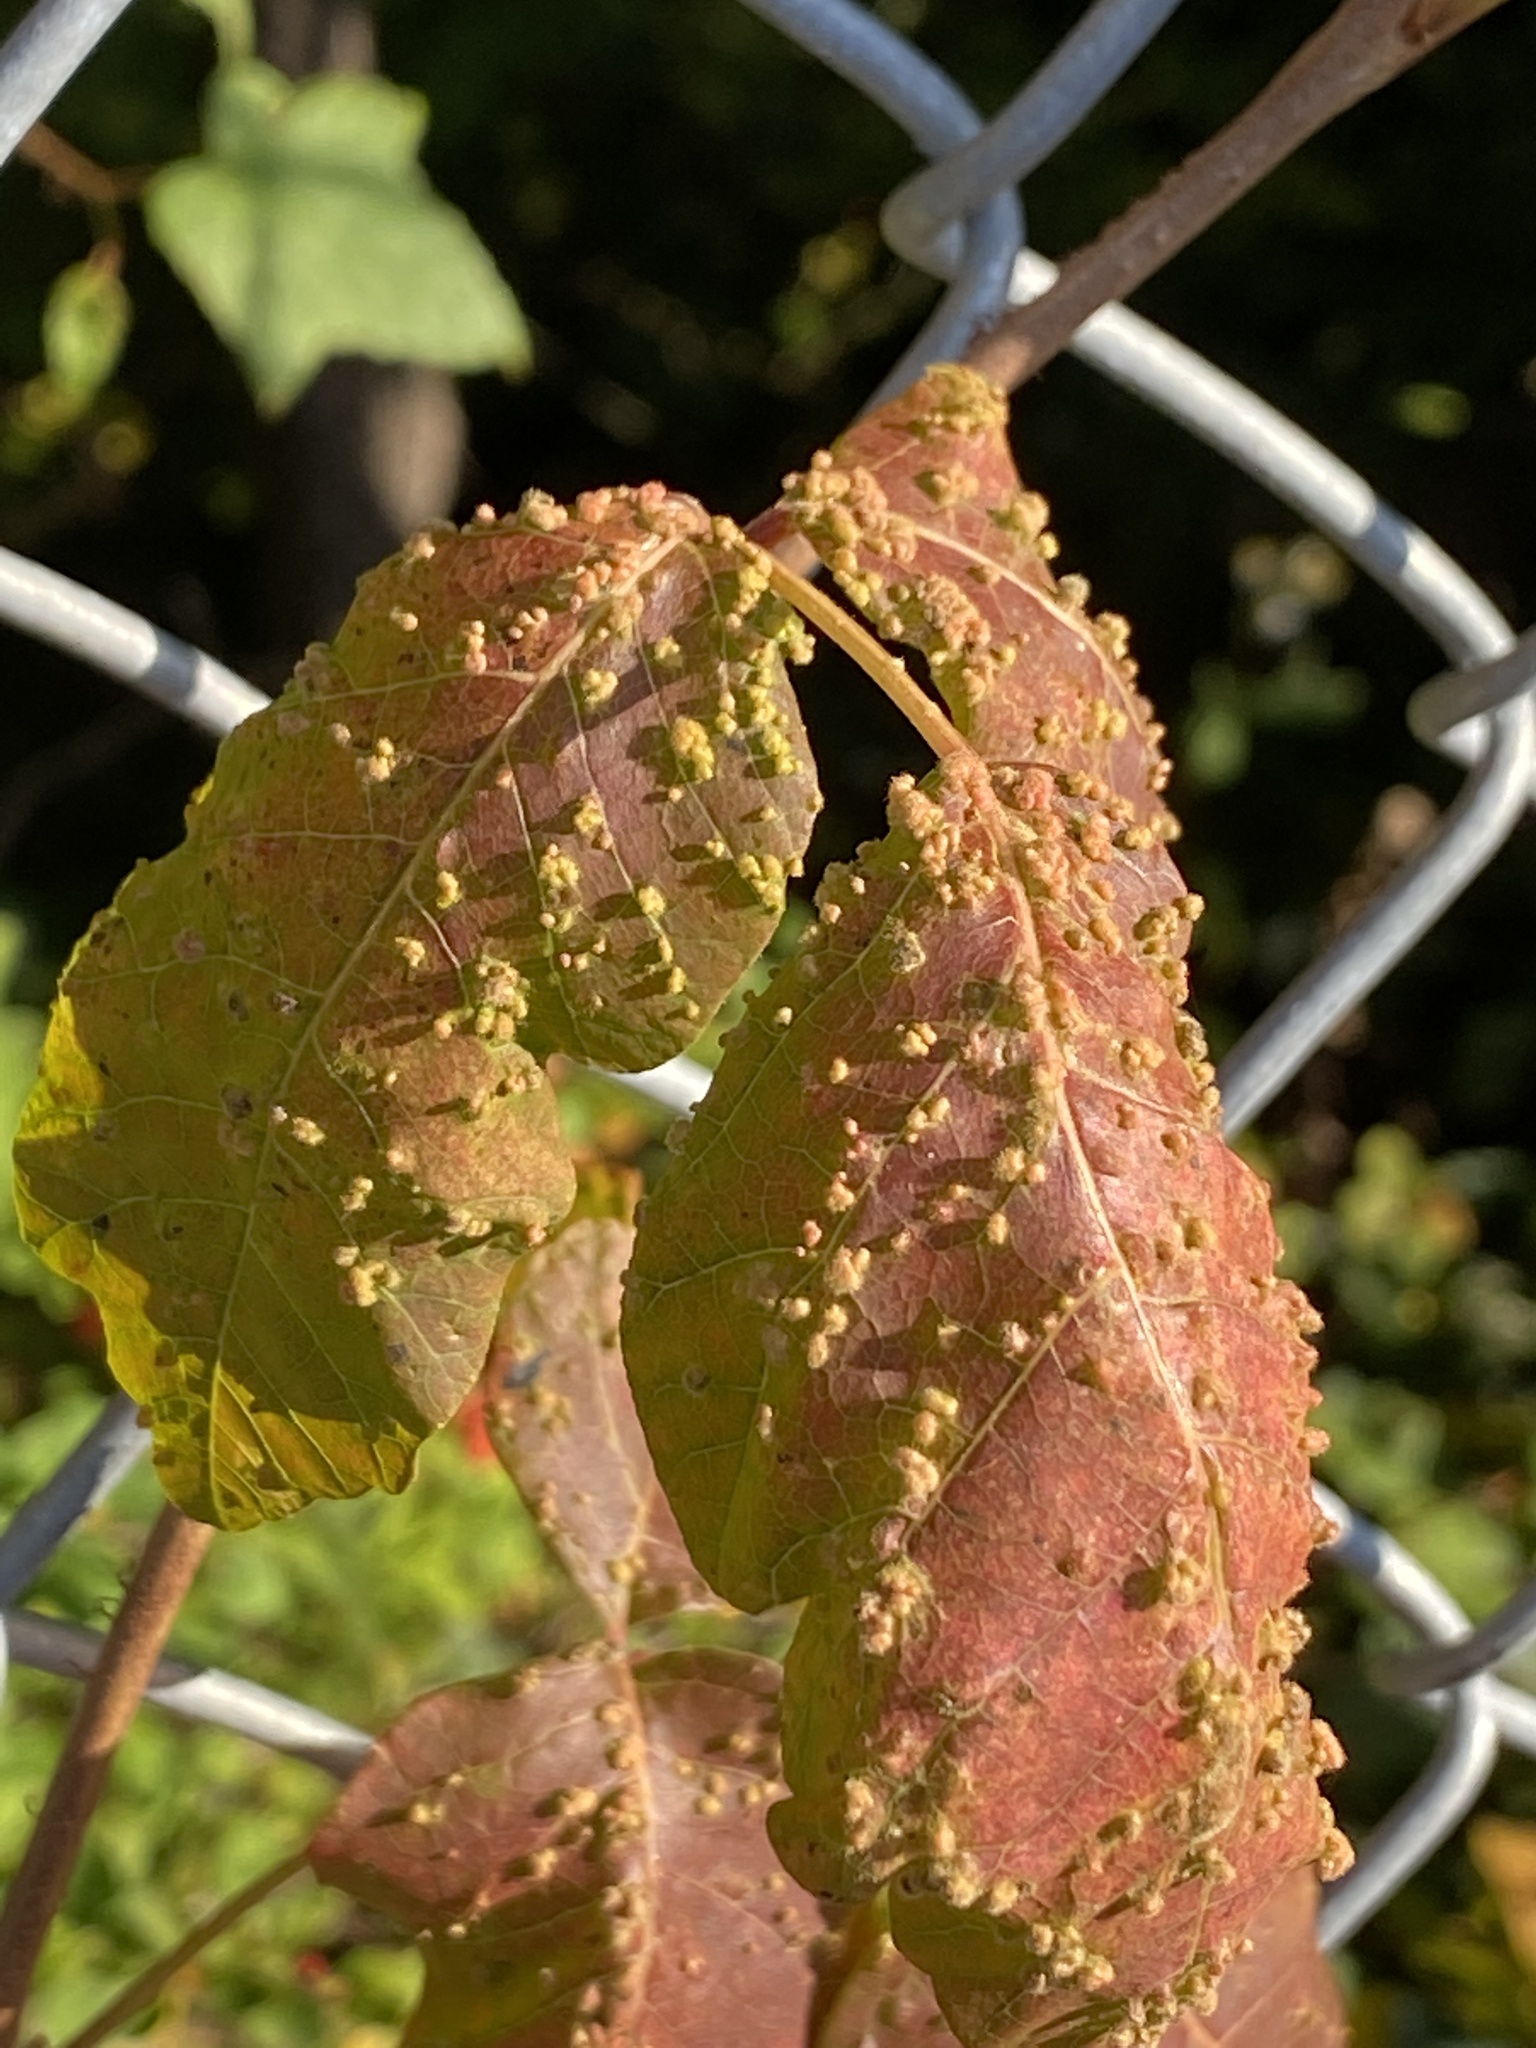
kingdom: Animalia
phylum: Arthropoda
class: Arachnida
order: Trombidiformes
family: Eriophyidae
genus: Aculops
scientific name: Aculops
